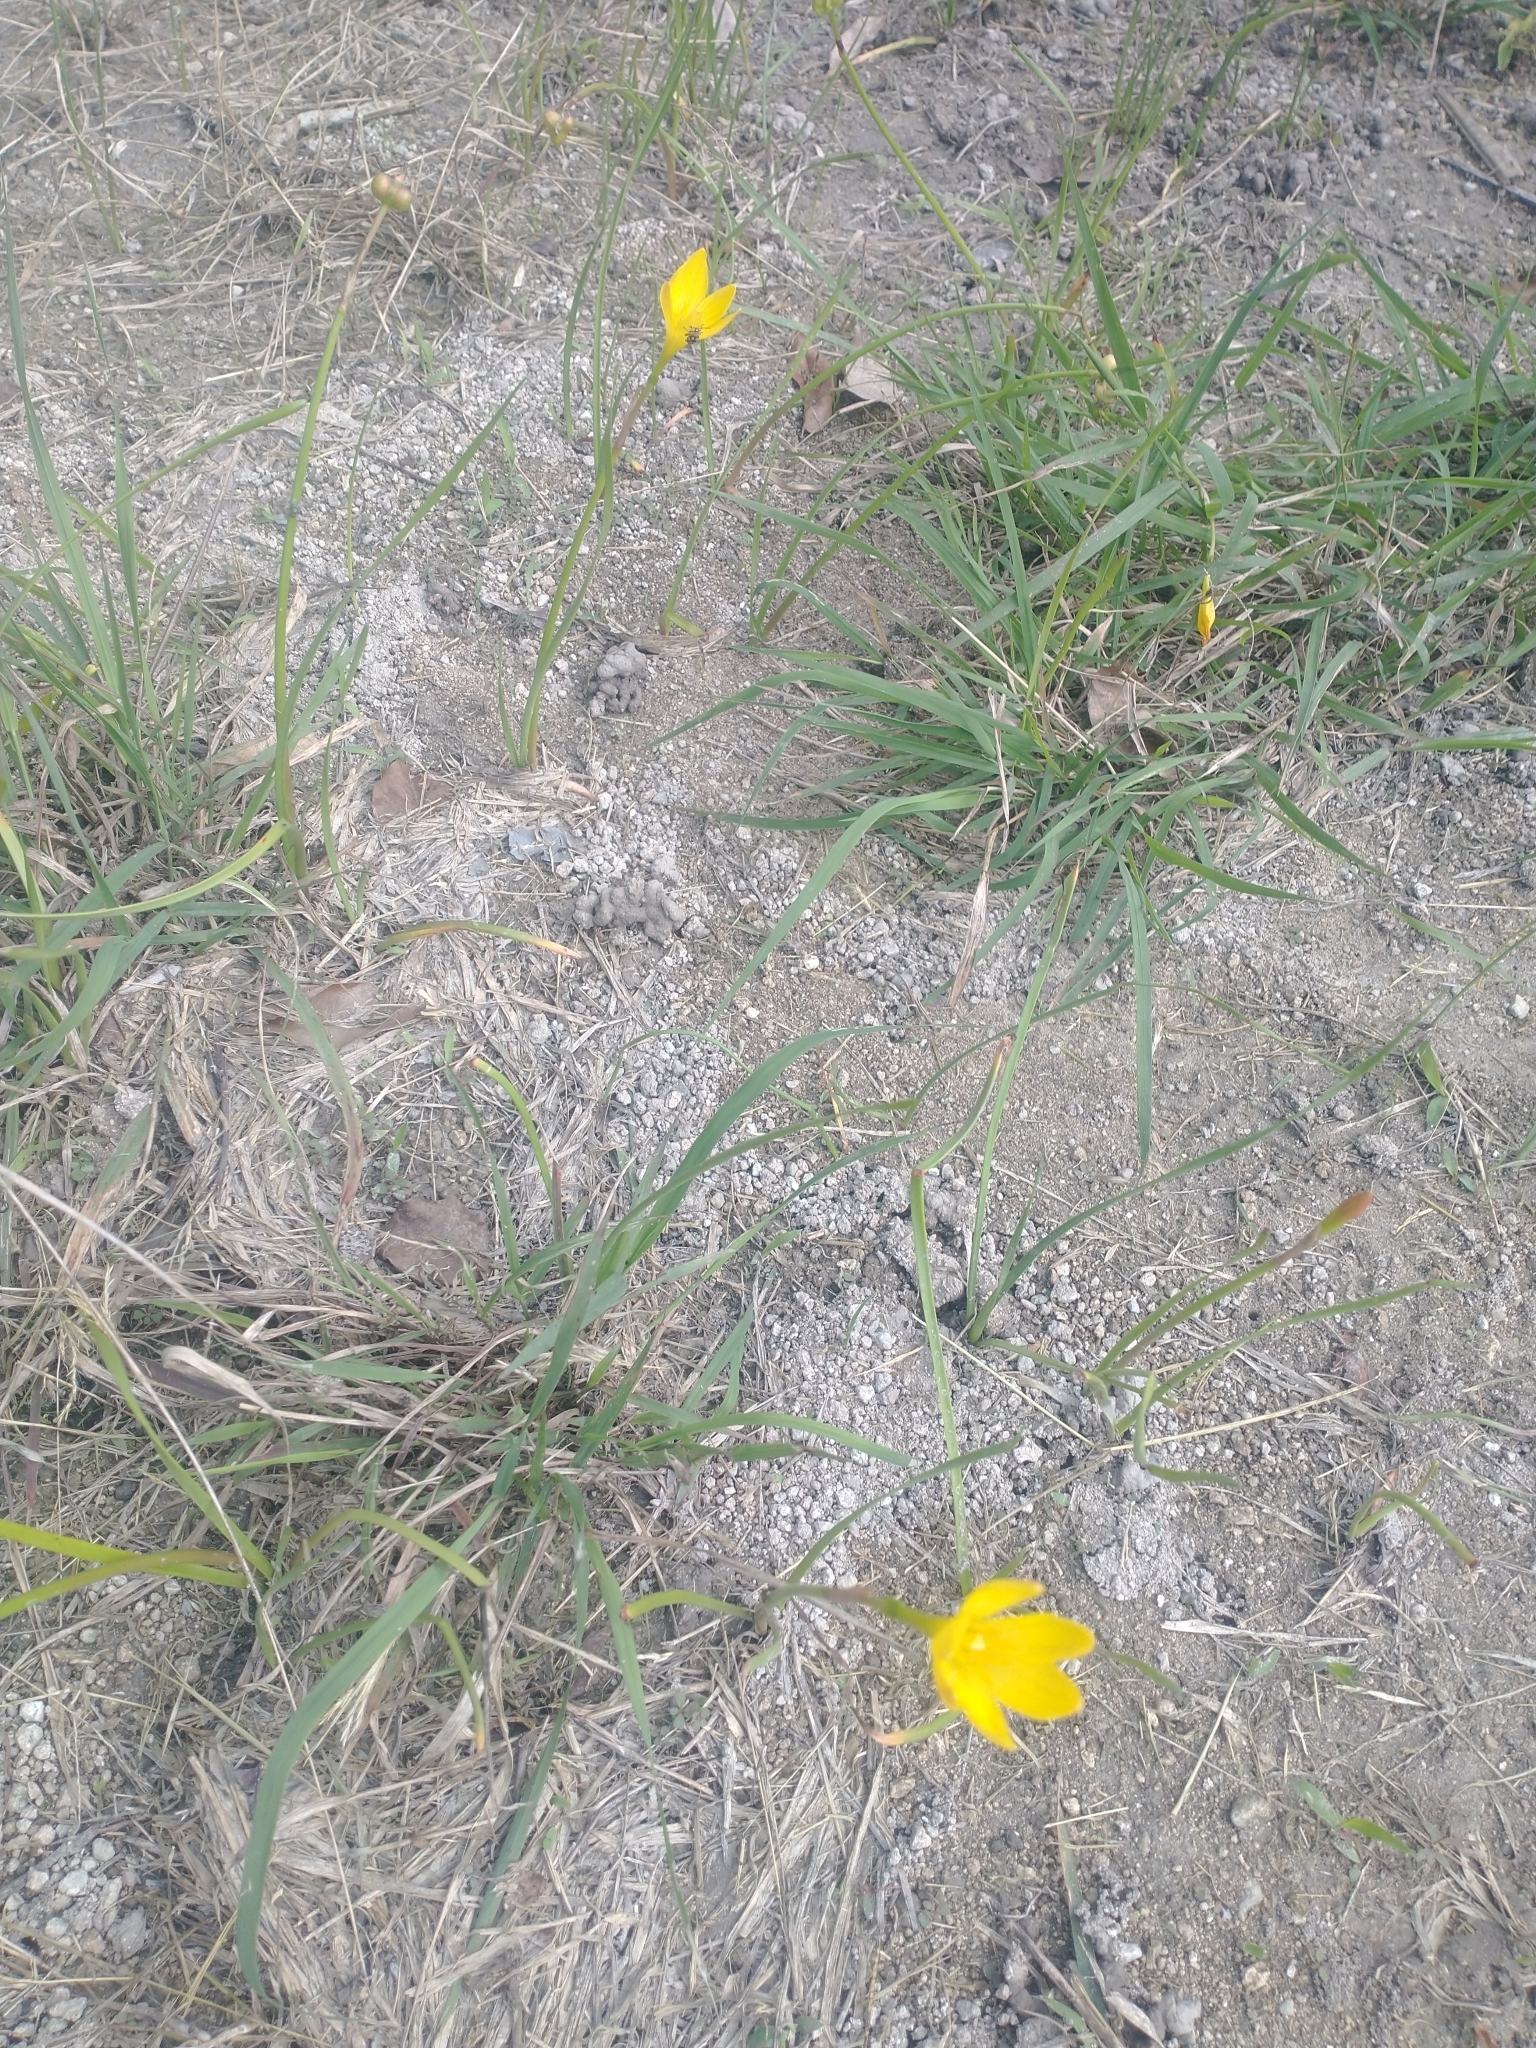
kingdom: Plantae
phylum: Tracheophyta
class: Liliopsida
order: Asparagales
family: Amaryllidaceae
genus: Zephyranthes
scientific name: Zephyranthes citrina
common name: Citron zephyrlily
